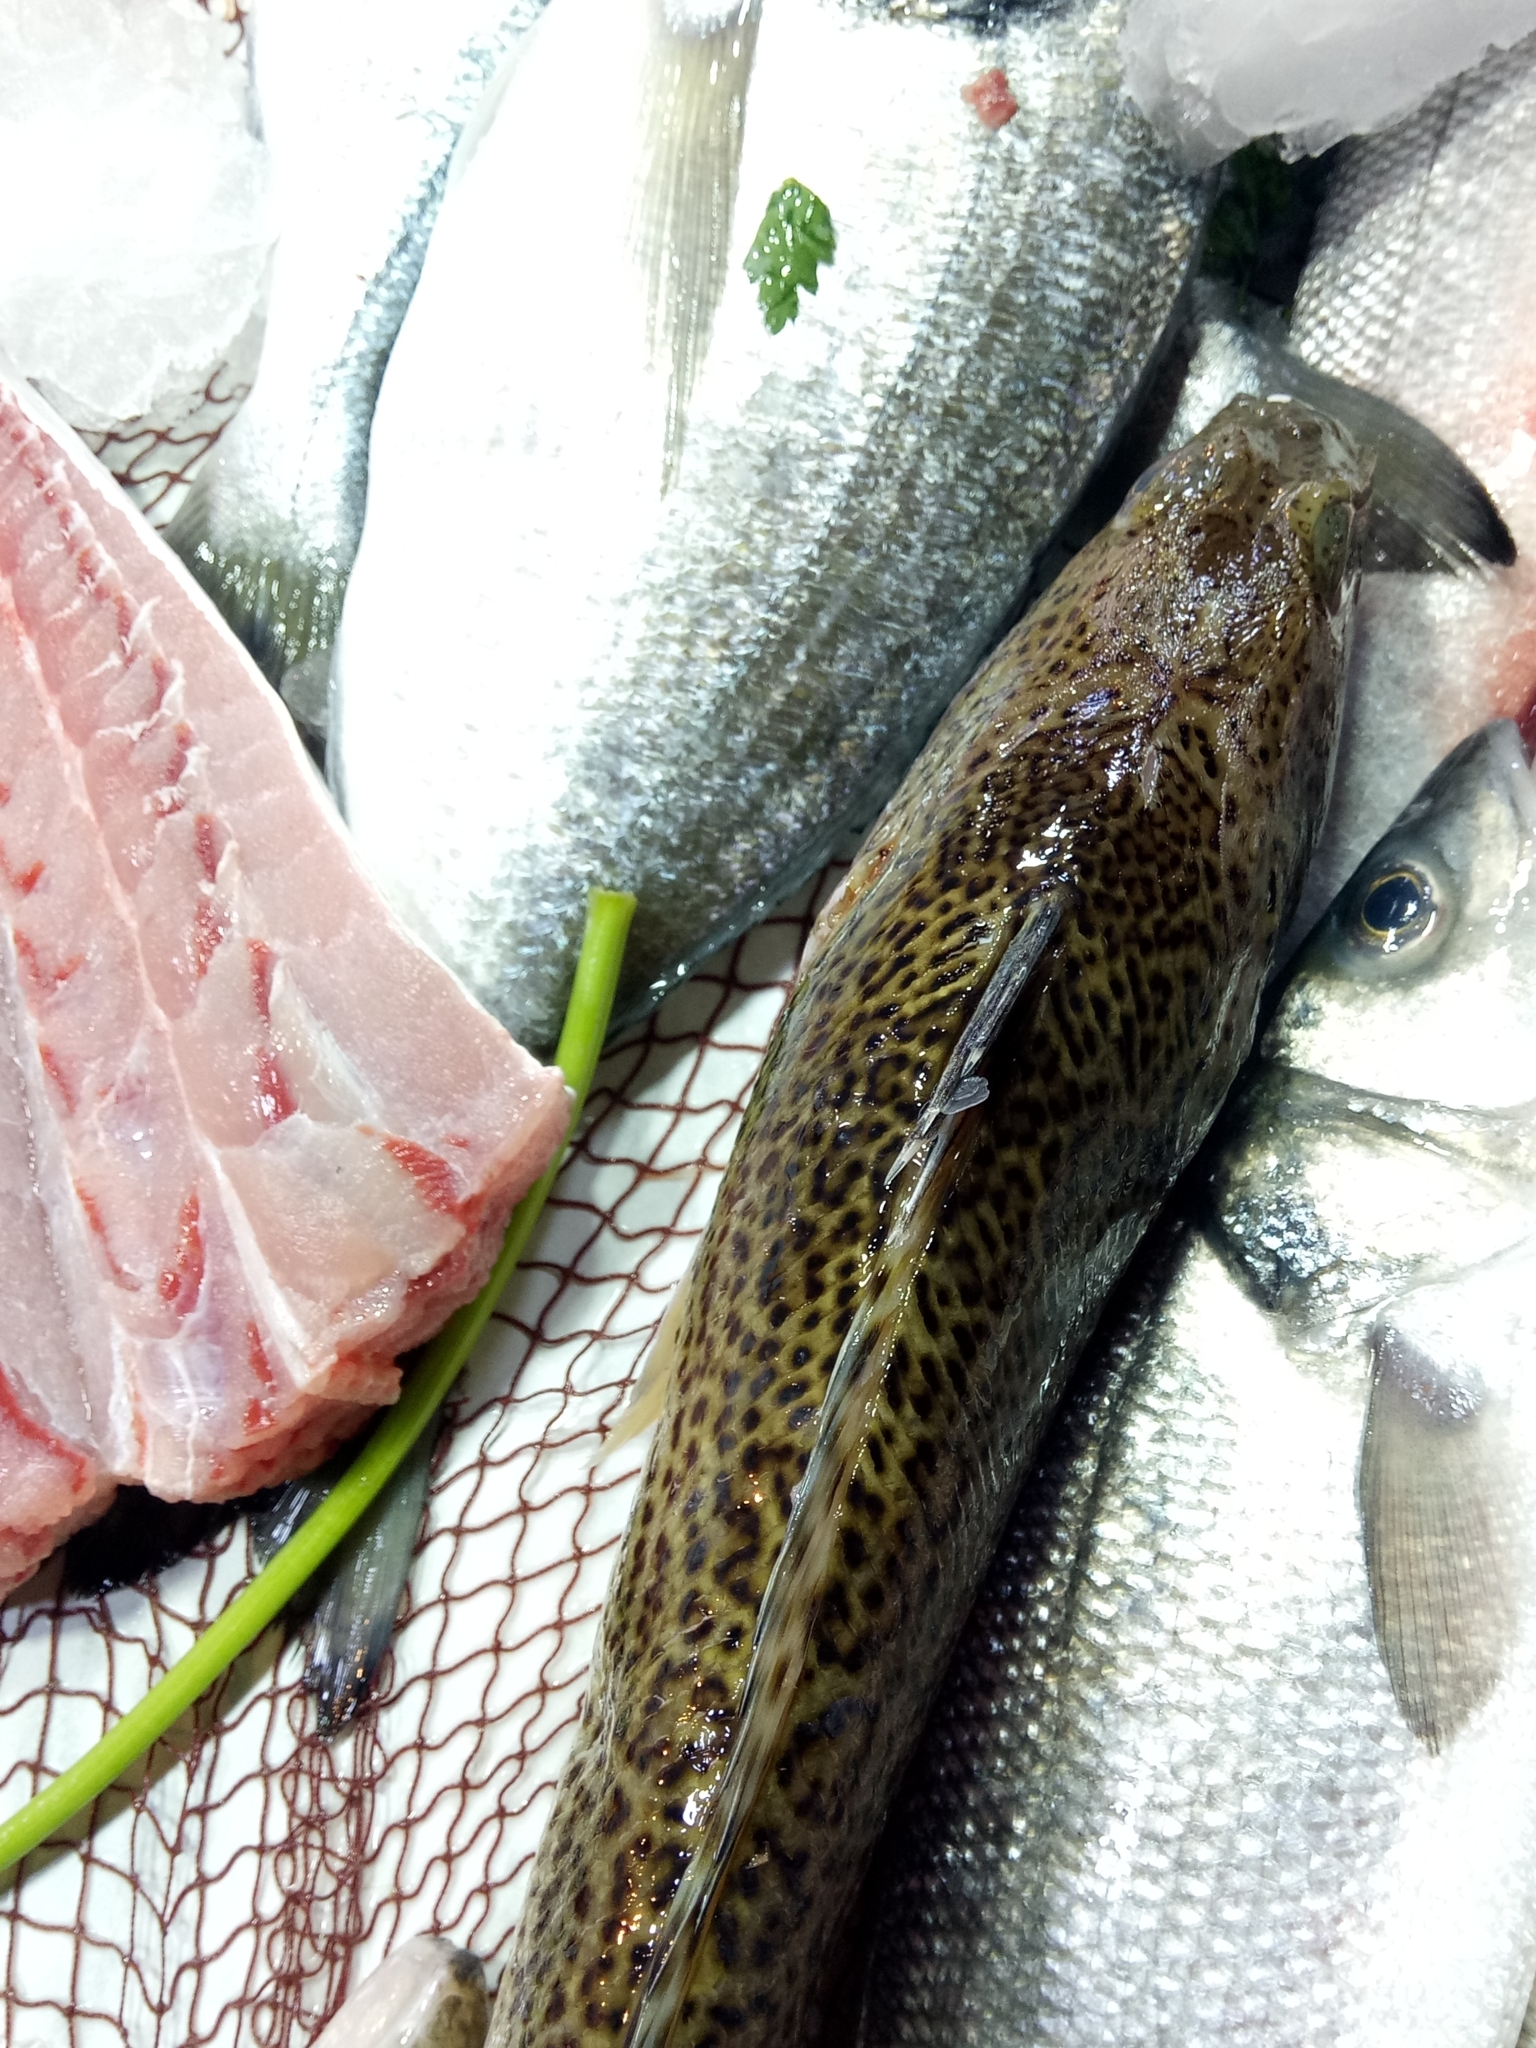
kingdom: Animalia
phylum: Chordata
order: Perciformes
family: Trachinidae
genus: Trachinus
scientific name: Trachinus radiatus
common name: Starry weever
